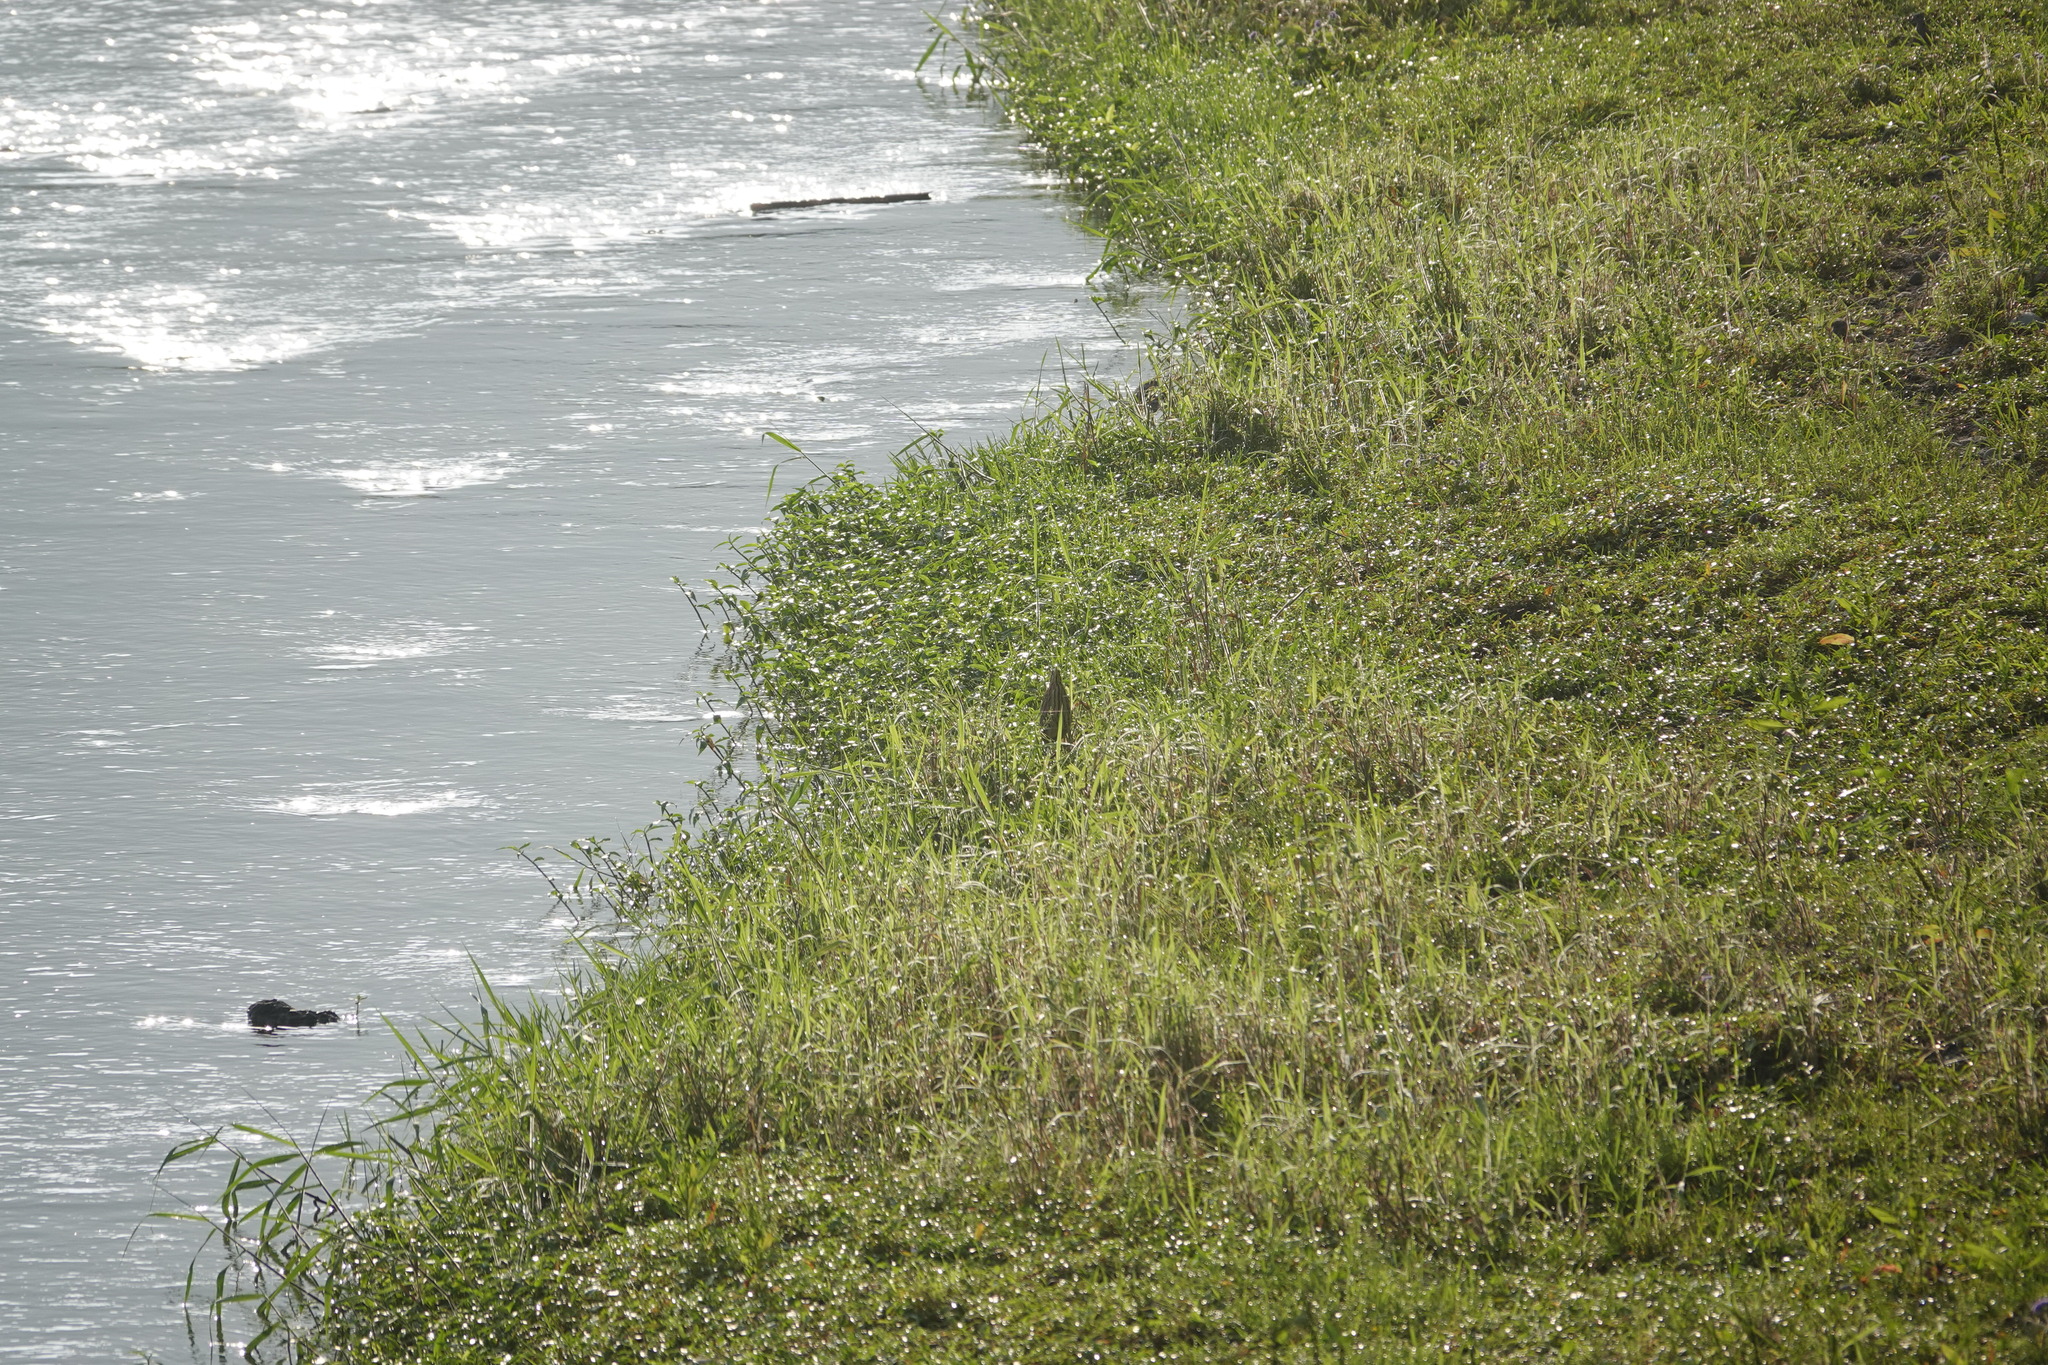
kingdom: Animalia
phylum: Chordata
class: Aves
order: Pelecaniformes
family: Ardeidae
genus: Ixobrychus
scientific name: Ixobrychus cinnamomeus
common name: Cinnamon bittern
